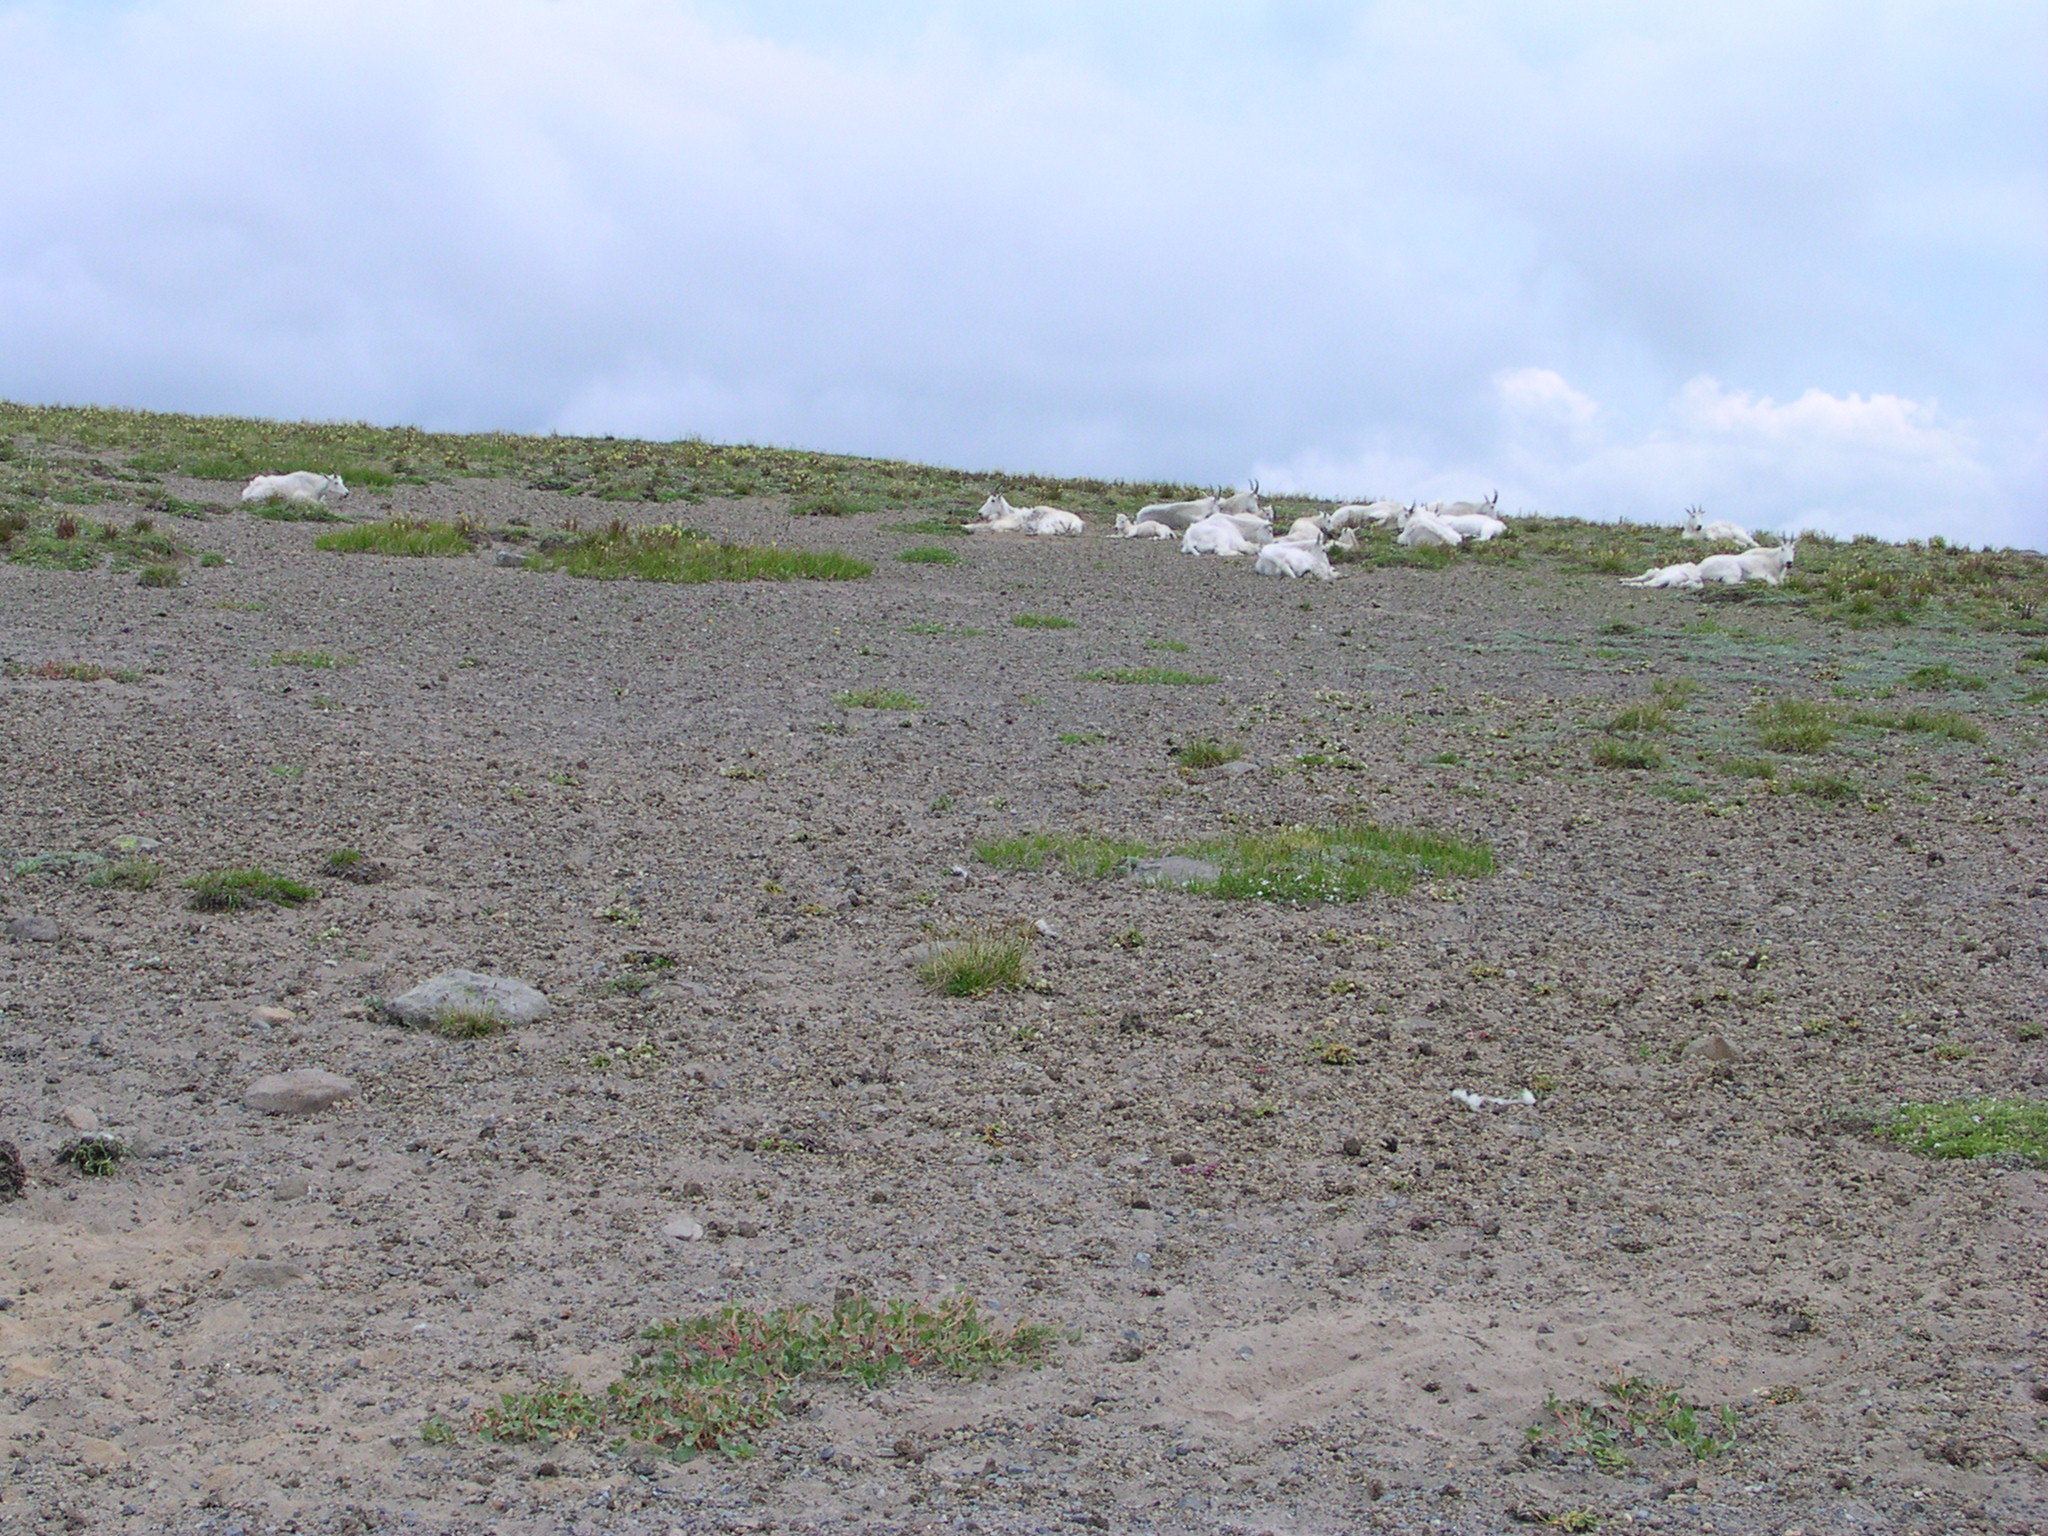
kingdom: Animalia
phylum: Chordata
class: Mammalia
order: Artiodactyla
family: Bovidae
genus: Oreamnos
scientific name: Oreamnos americanus
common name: Mountain goat
